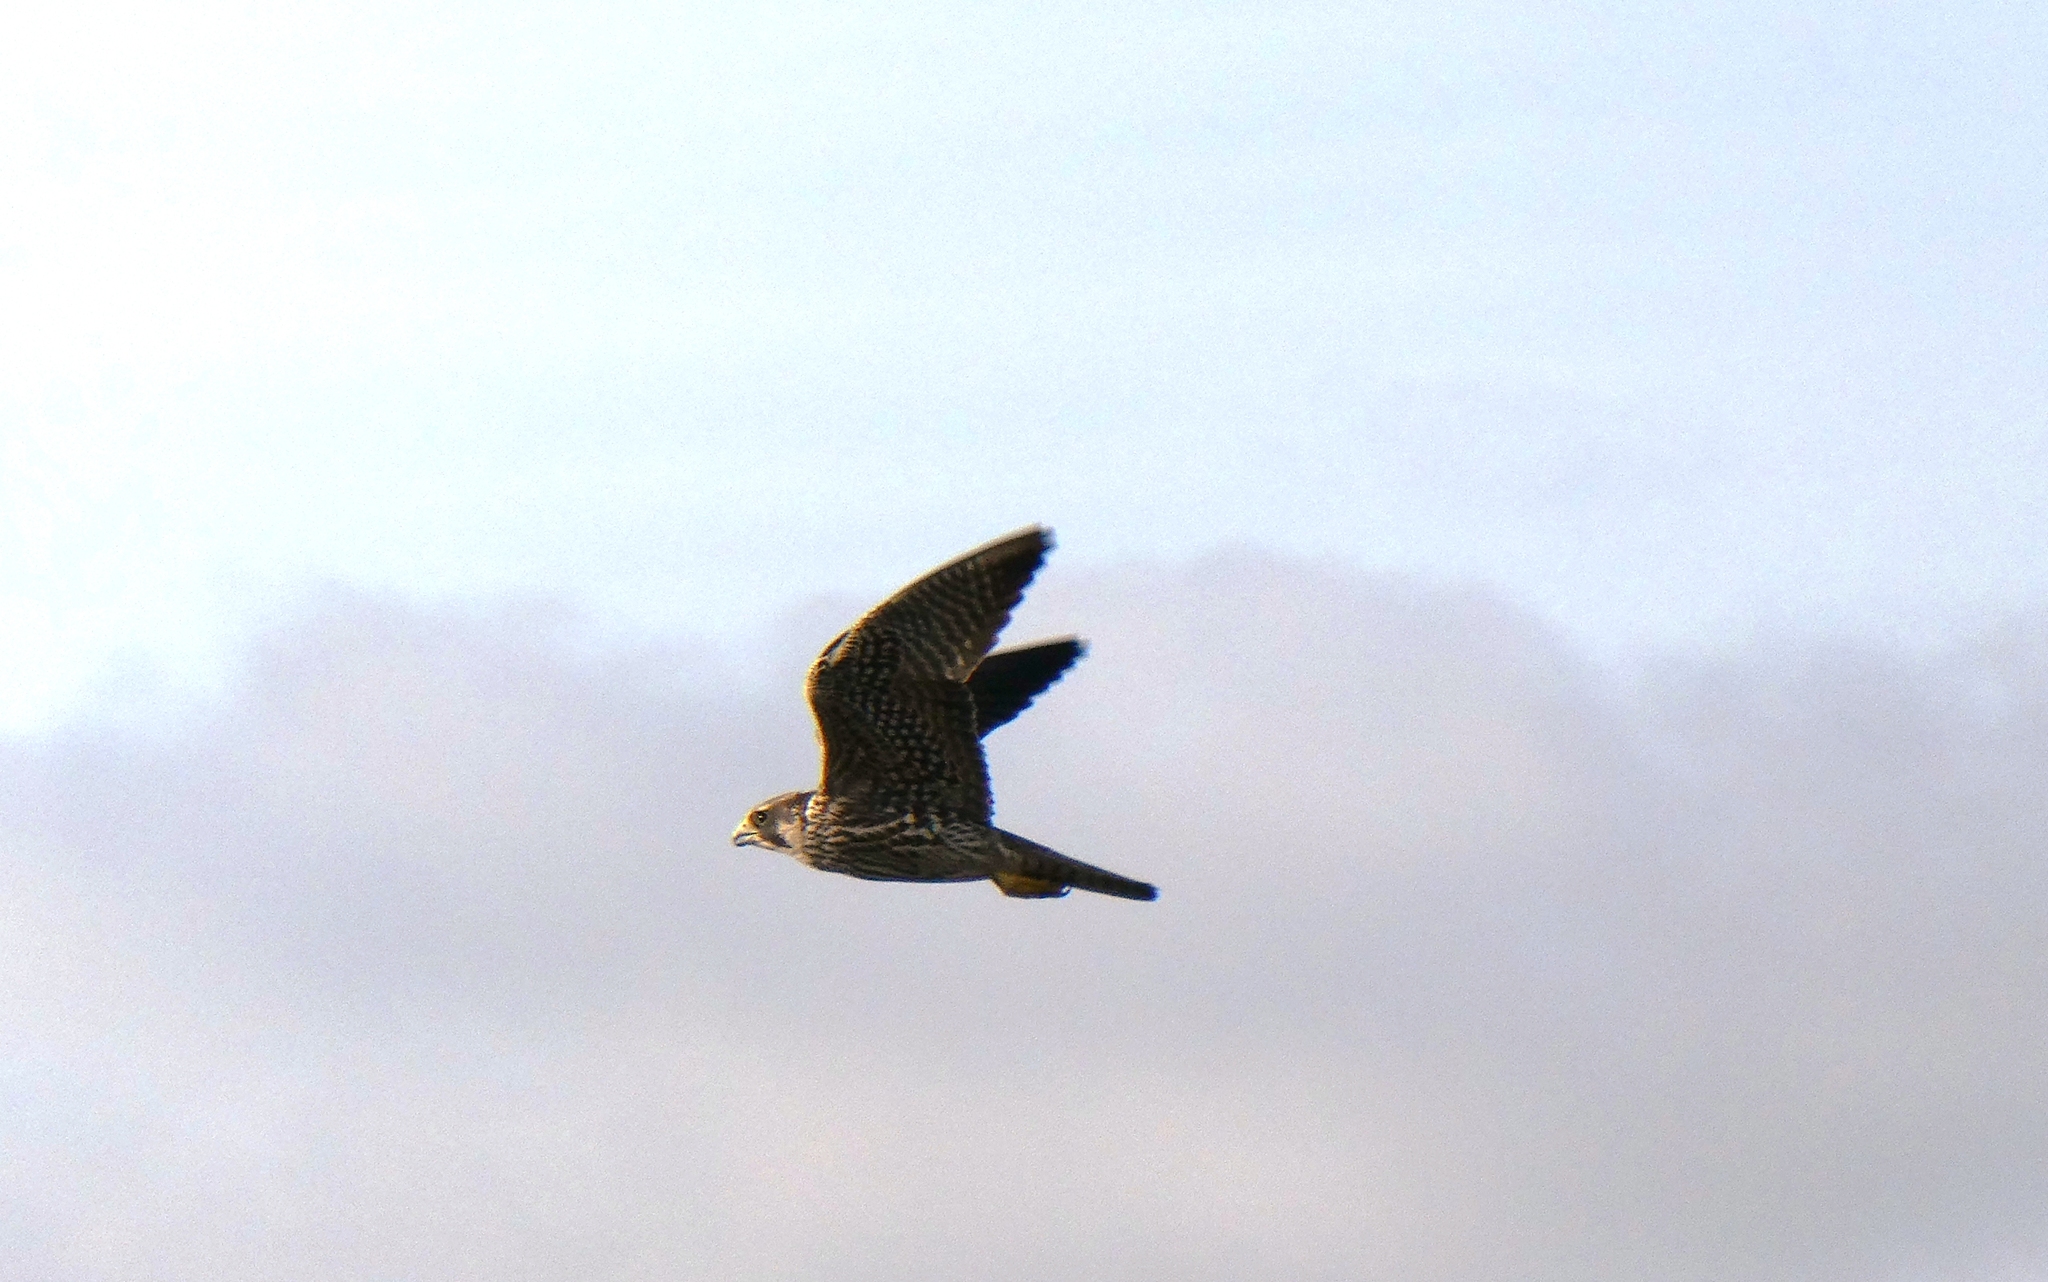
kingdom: Animalia
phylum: Chordata
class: Aves
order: Falconiformes
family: Falconidae
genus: Falco
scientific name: Falco peregrinus
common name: Peregrine falcon
